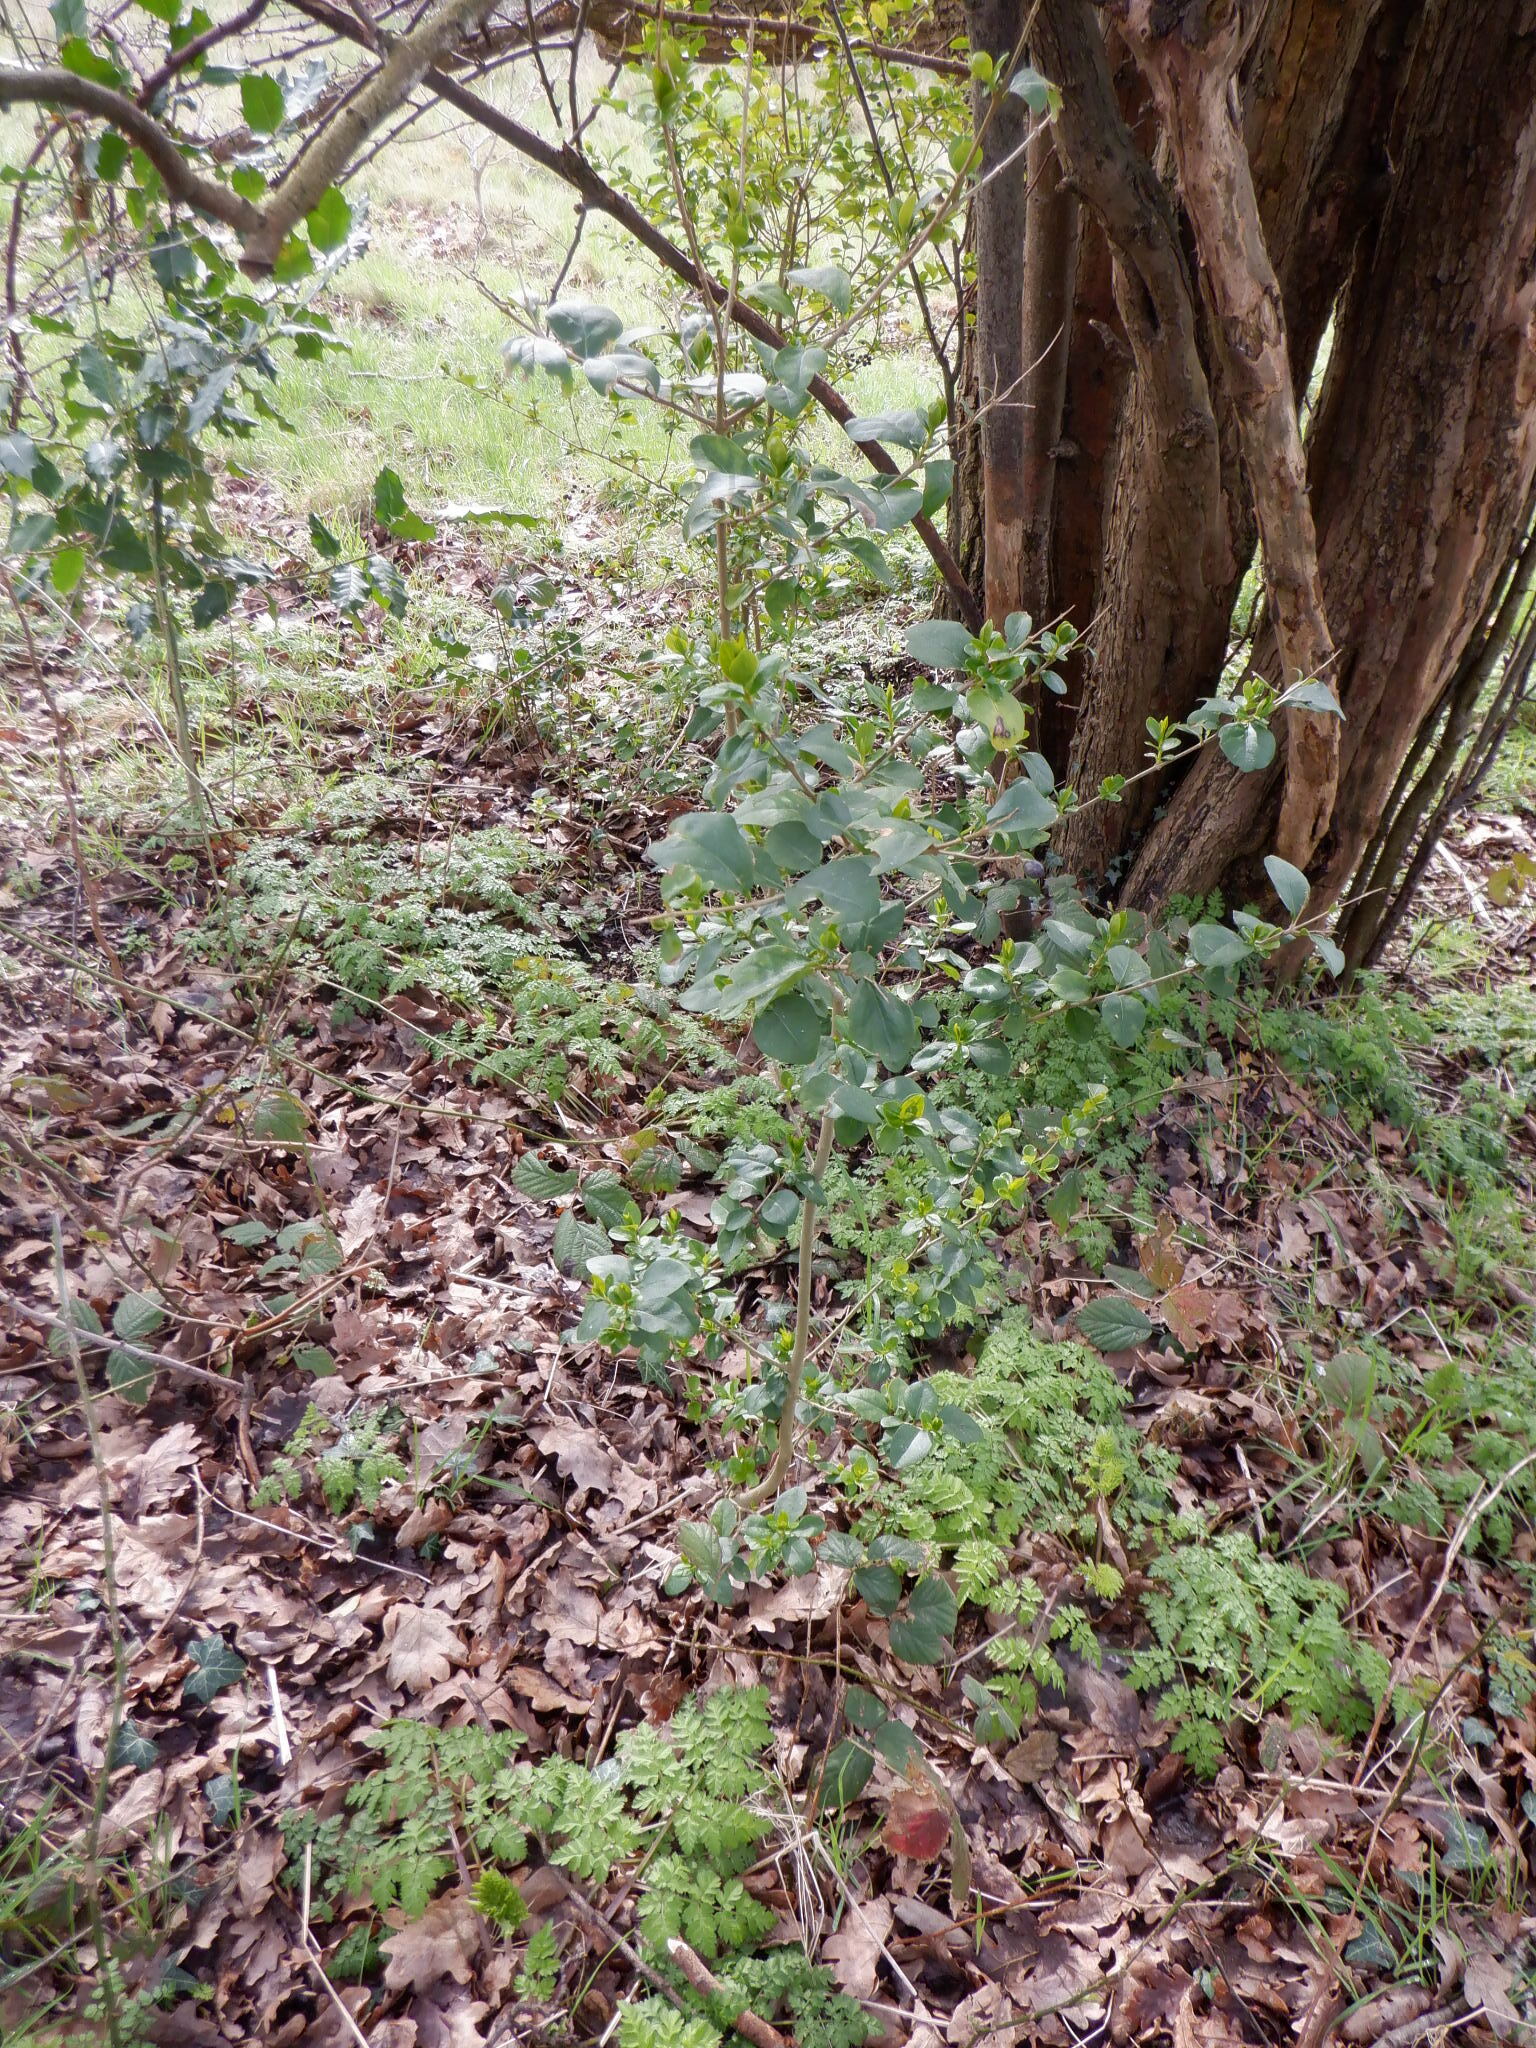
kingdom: Plantae
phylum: Tracheophyta
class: Magnoliopsida
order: Lamiales
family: Oleaceae
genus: Ligustrum
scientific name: Ligustrum ovalifolium
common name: California privet
